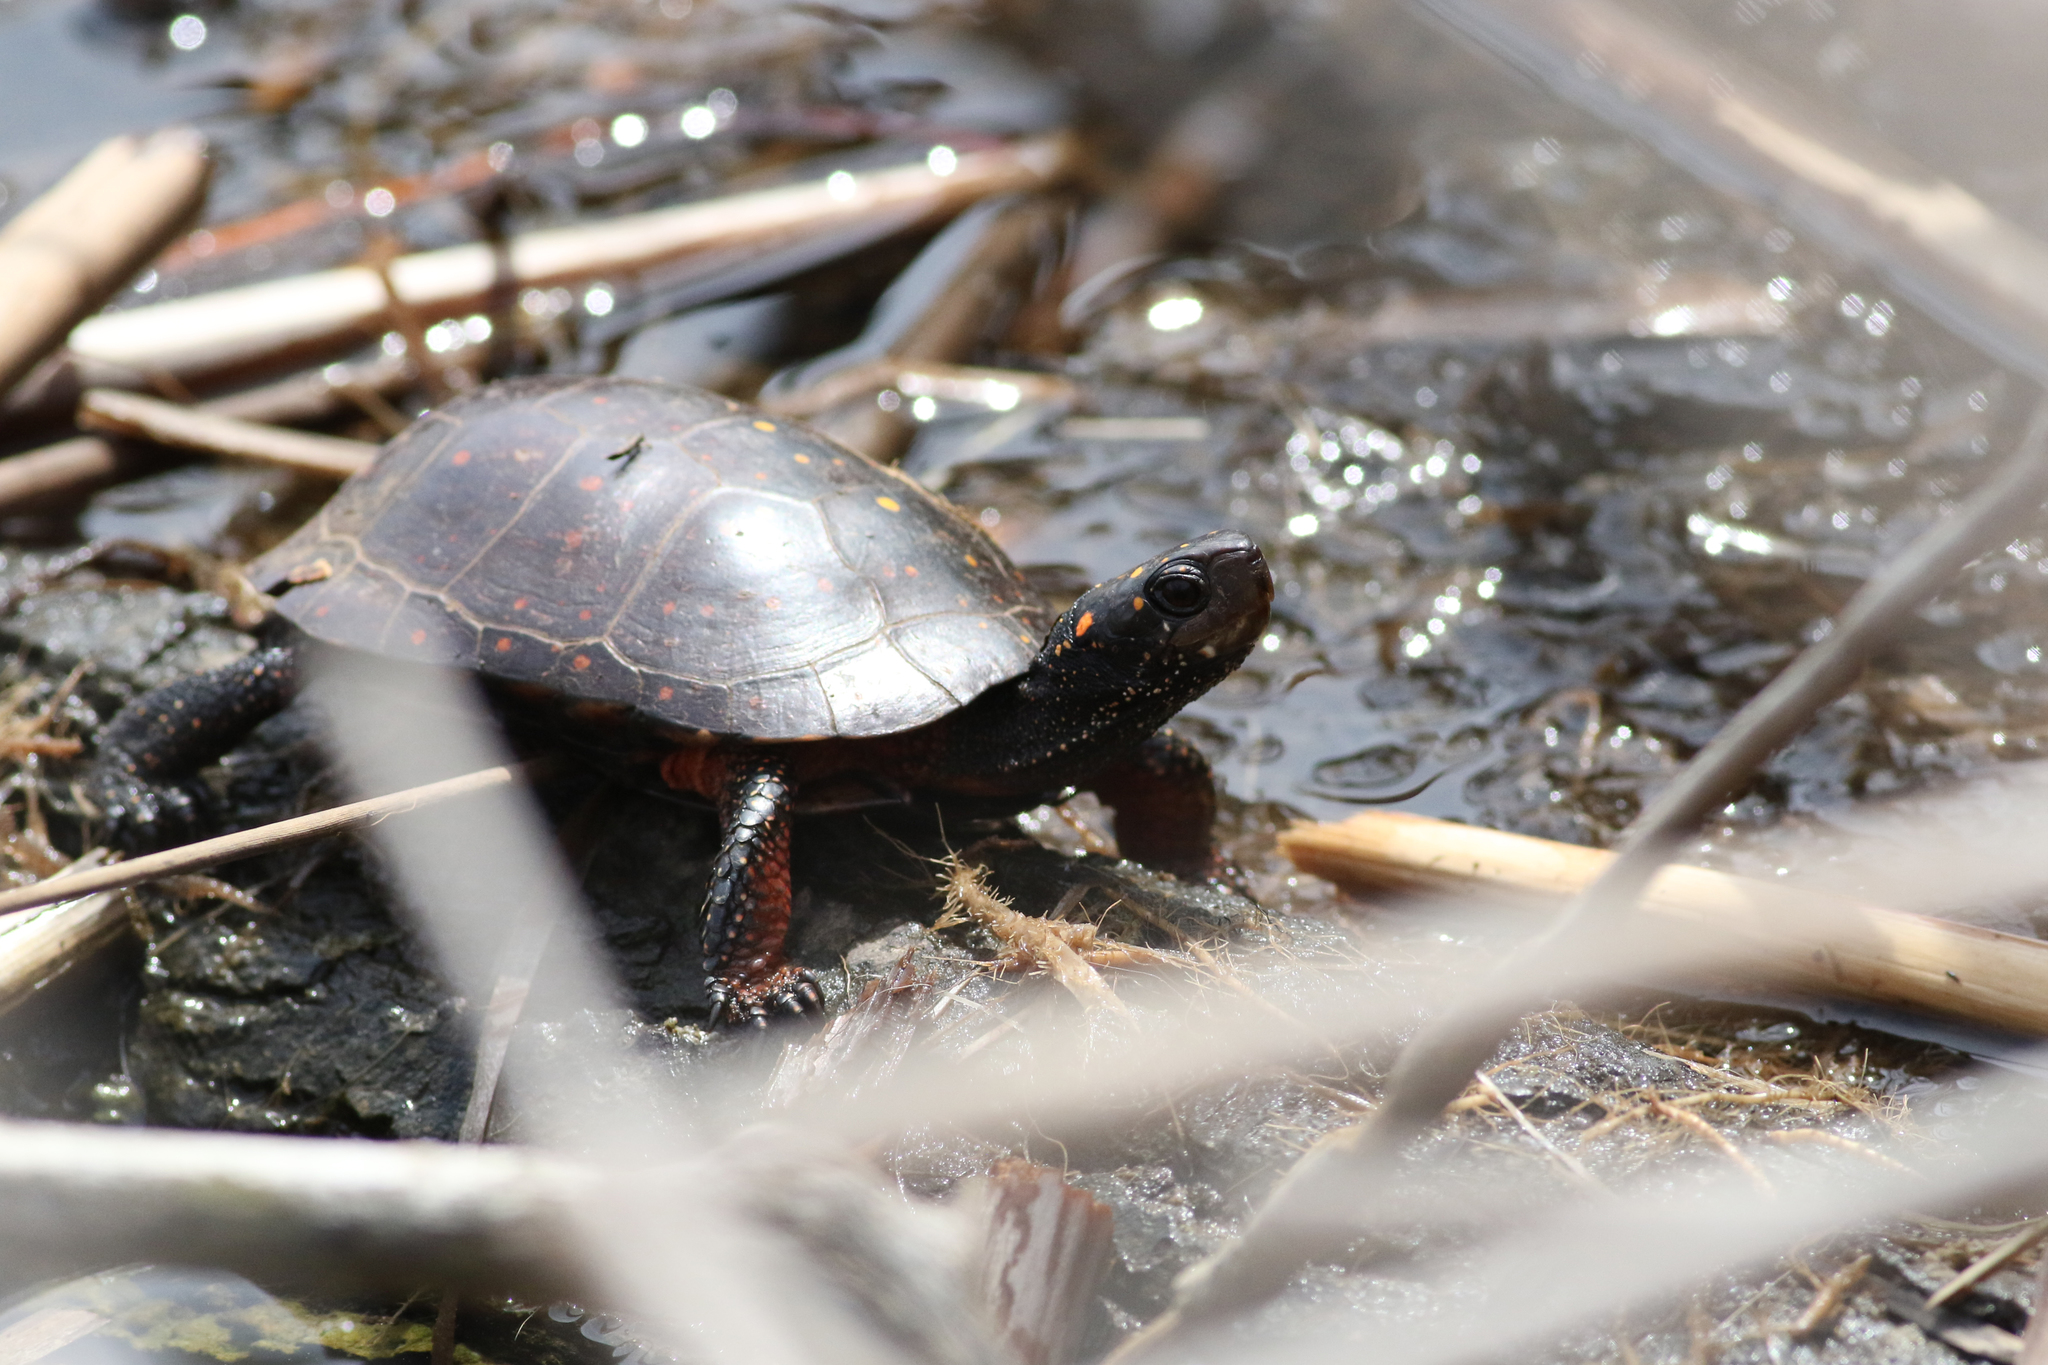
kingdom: Animalia
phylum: Chordata
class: Testudines
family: Emydidae
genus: Clemmys
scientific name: Clemmys guttata
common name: Spotted turtle
